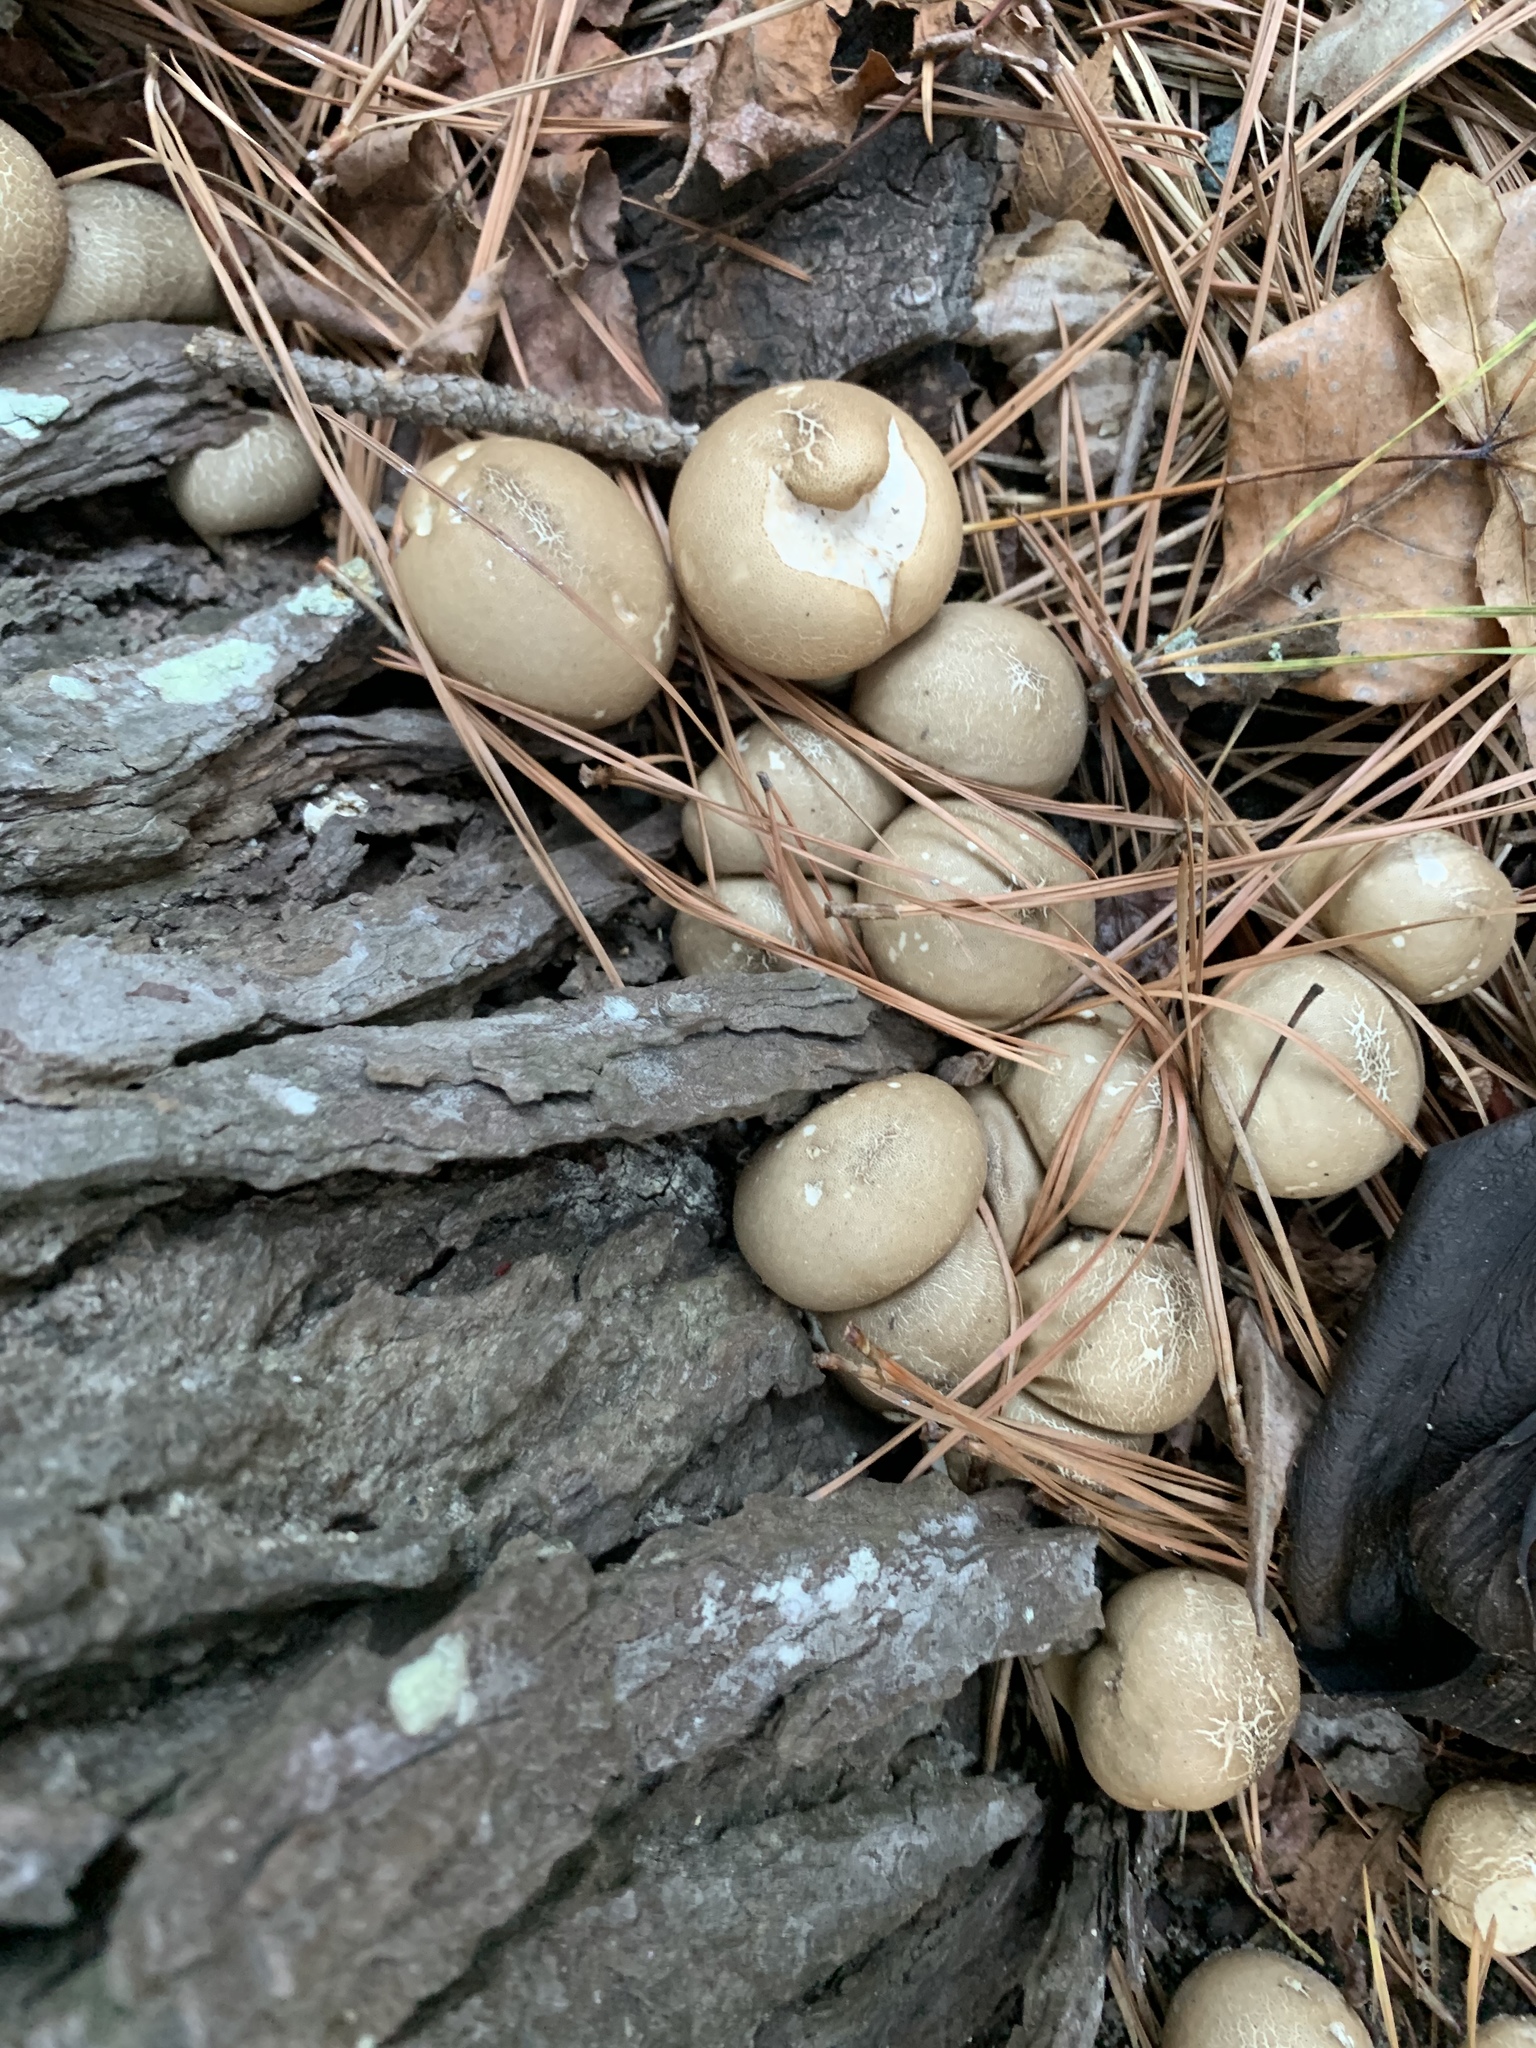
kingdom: Fungi
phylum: Basidiomycota
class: Agaricomycetes
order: Agaricales
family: Lycoperdaceae
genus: Apioperdon
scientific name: Apioperdon pyriforme
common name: Pear-shaped puffball
